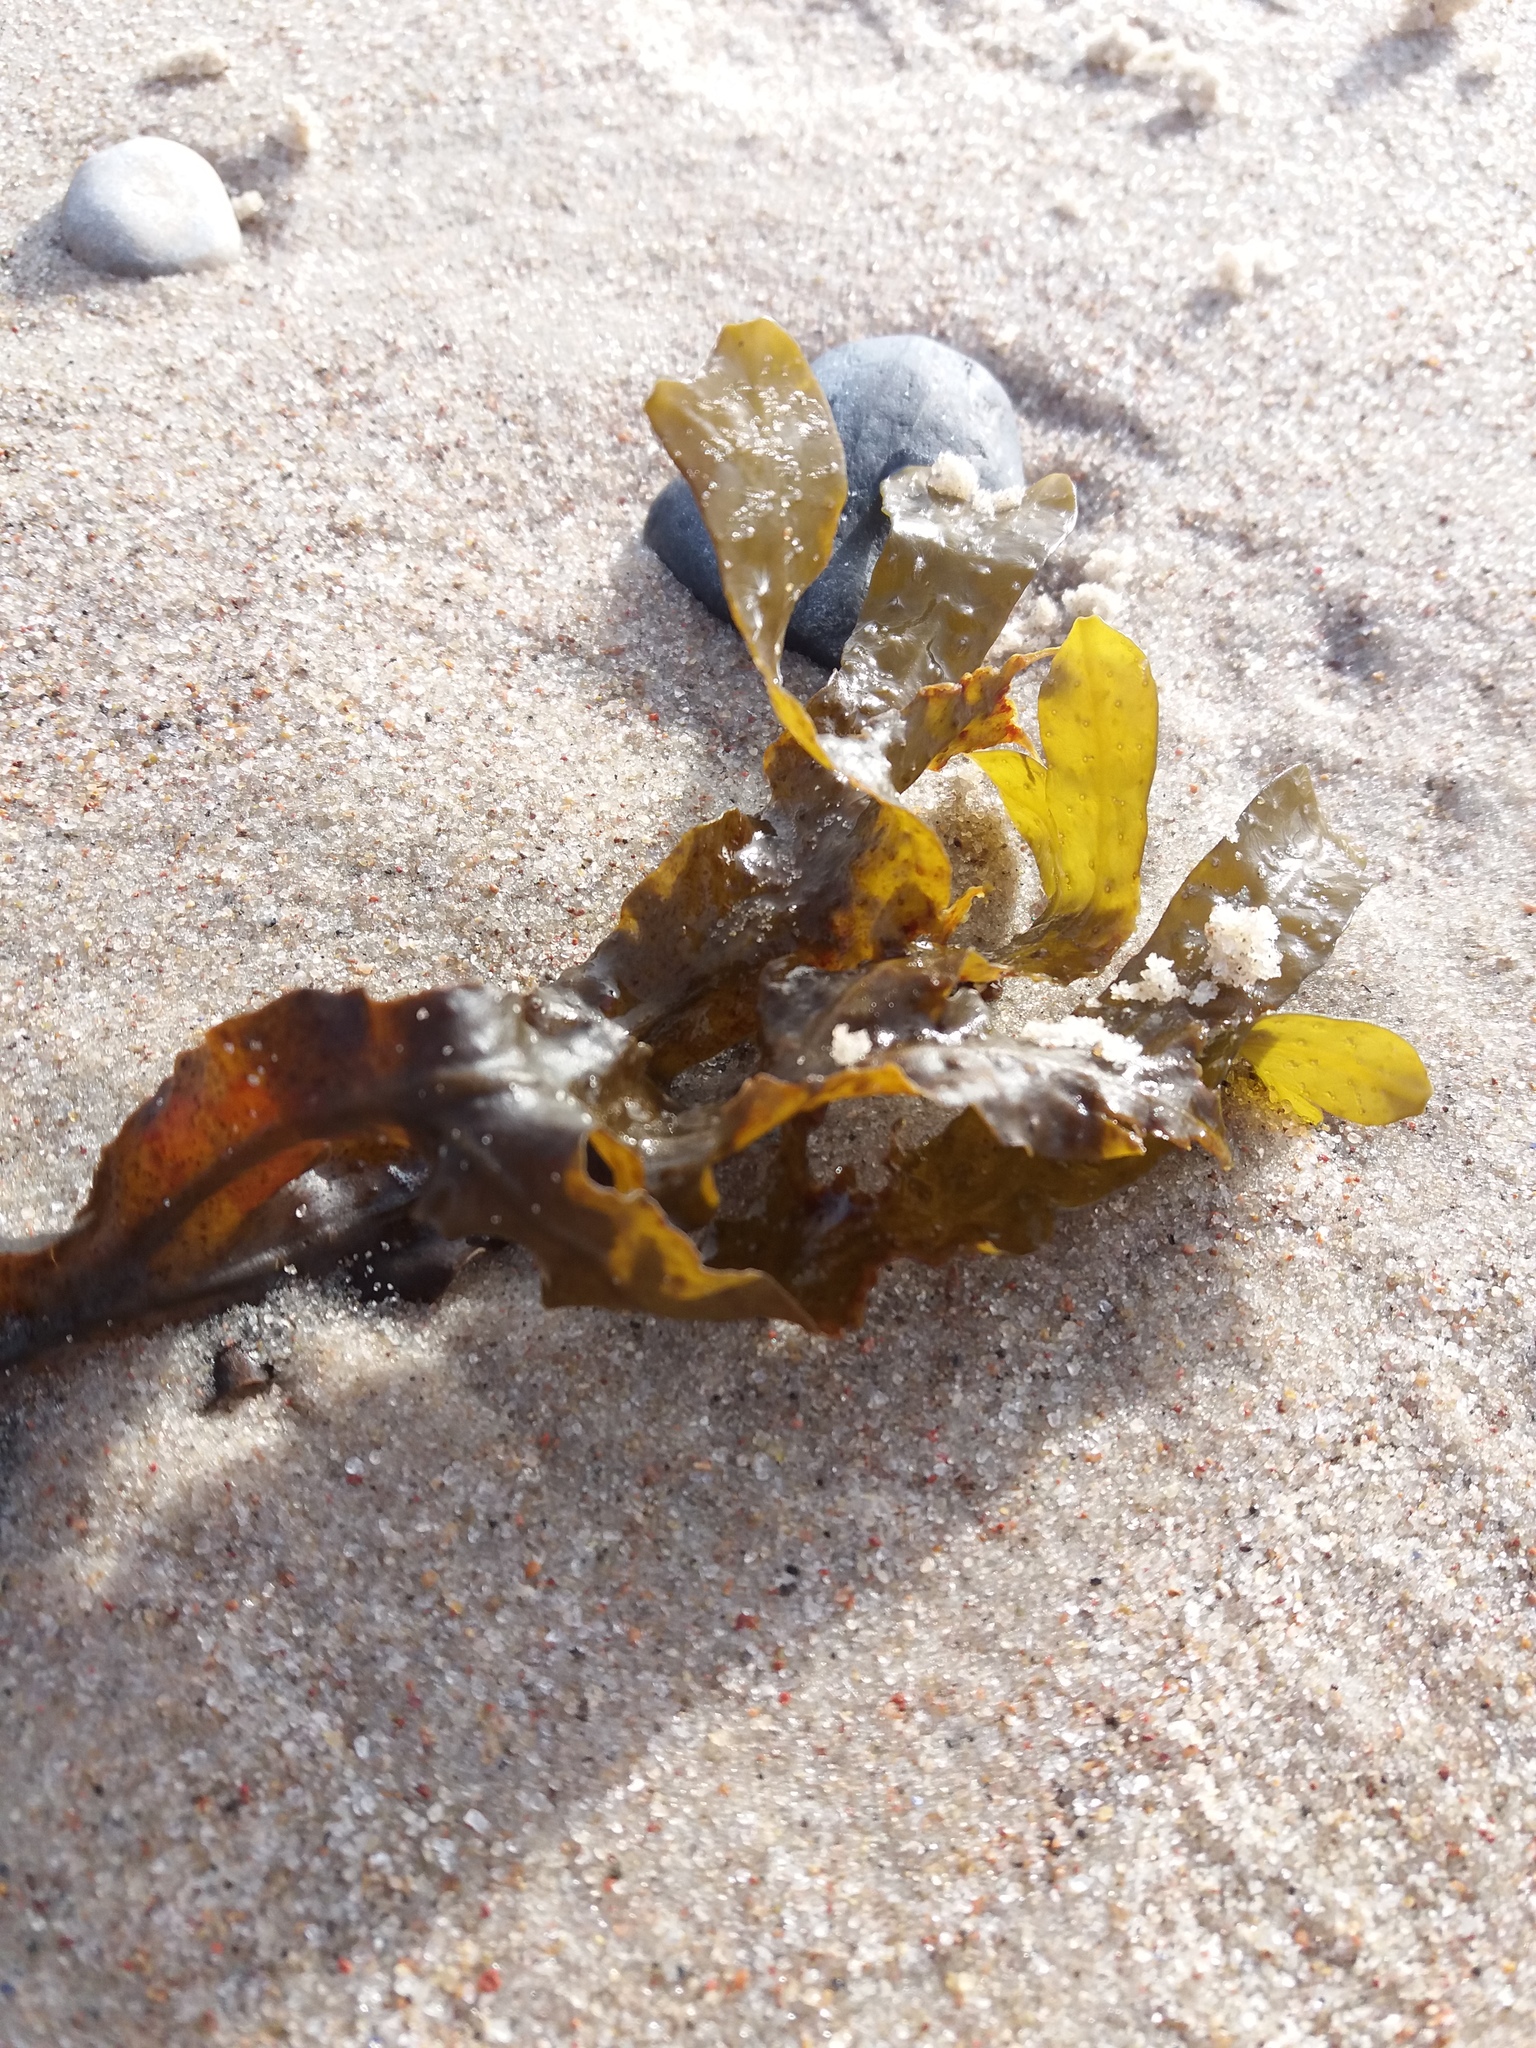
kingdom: Chromista
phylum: Ochrophyta
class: Phaeophyceae
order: Fucales
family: Fucaceae
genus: Fucus
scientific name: Fucus vesiculosus
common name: Bladder wrack
